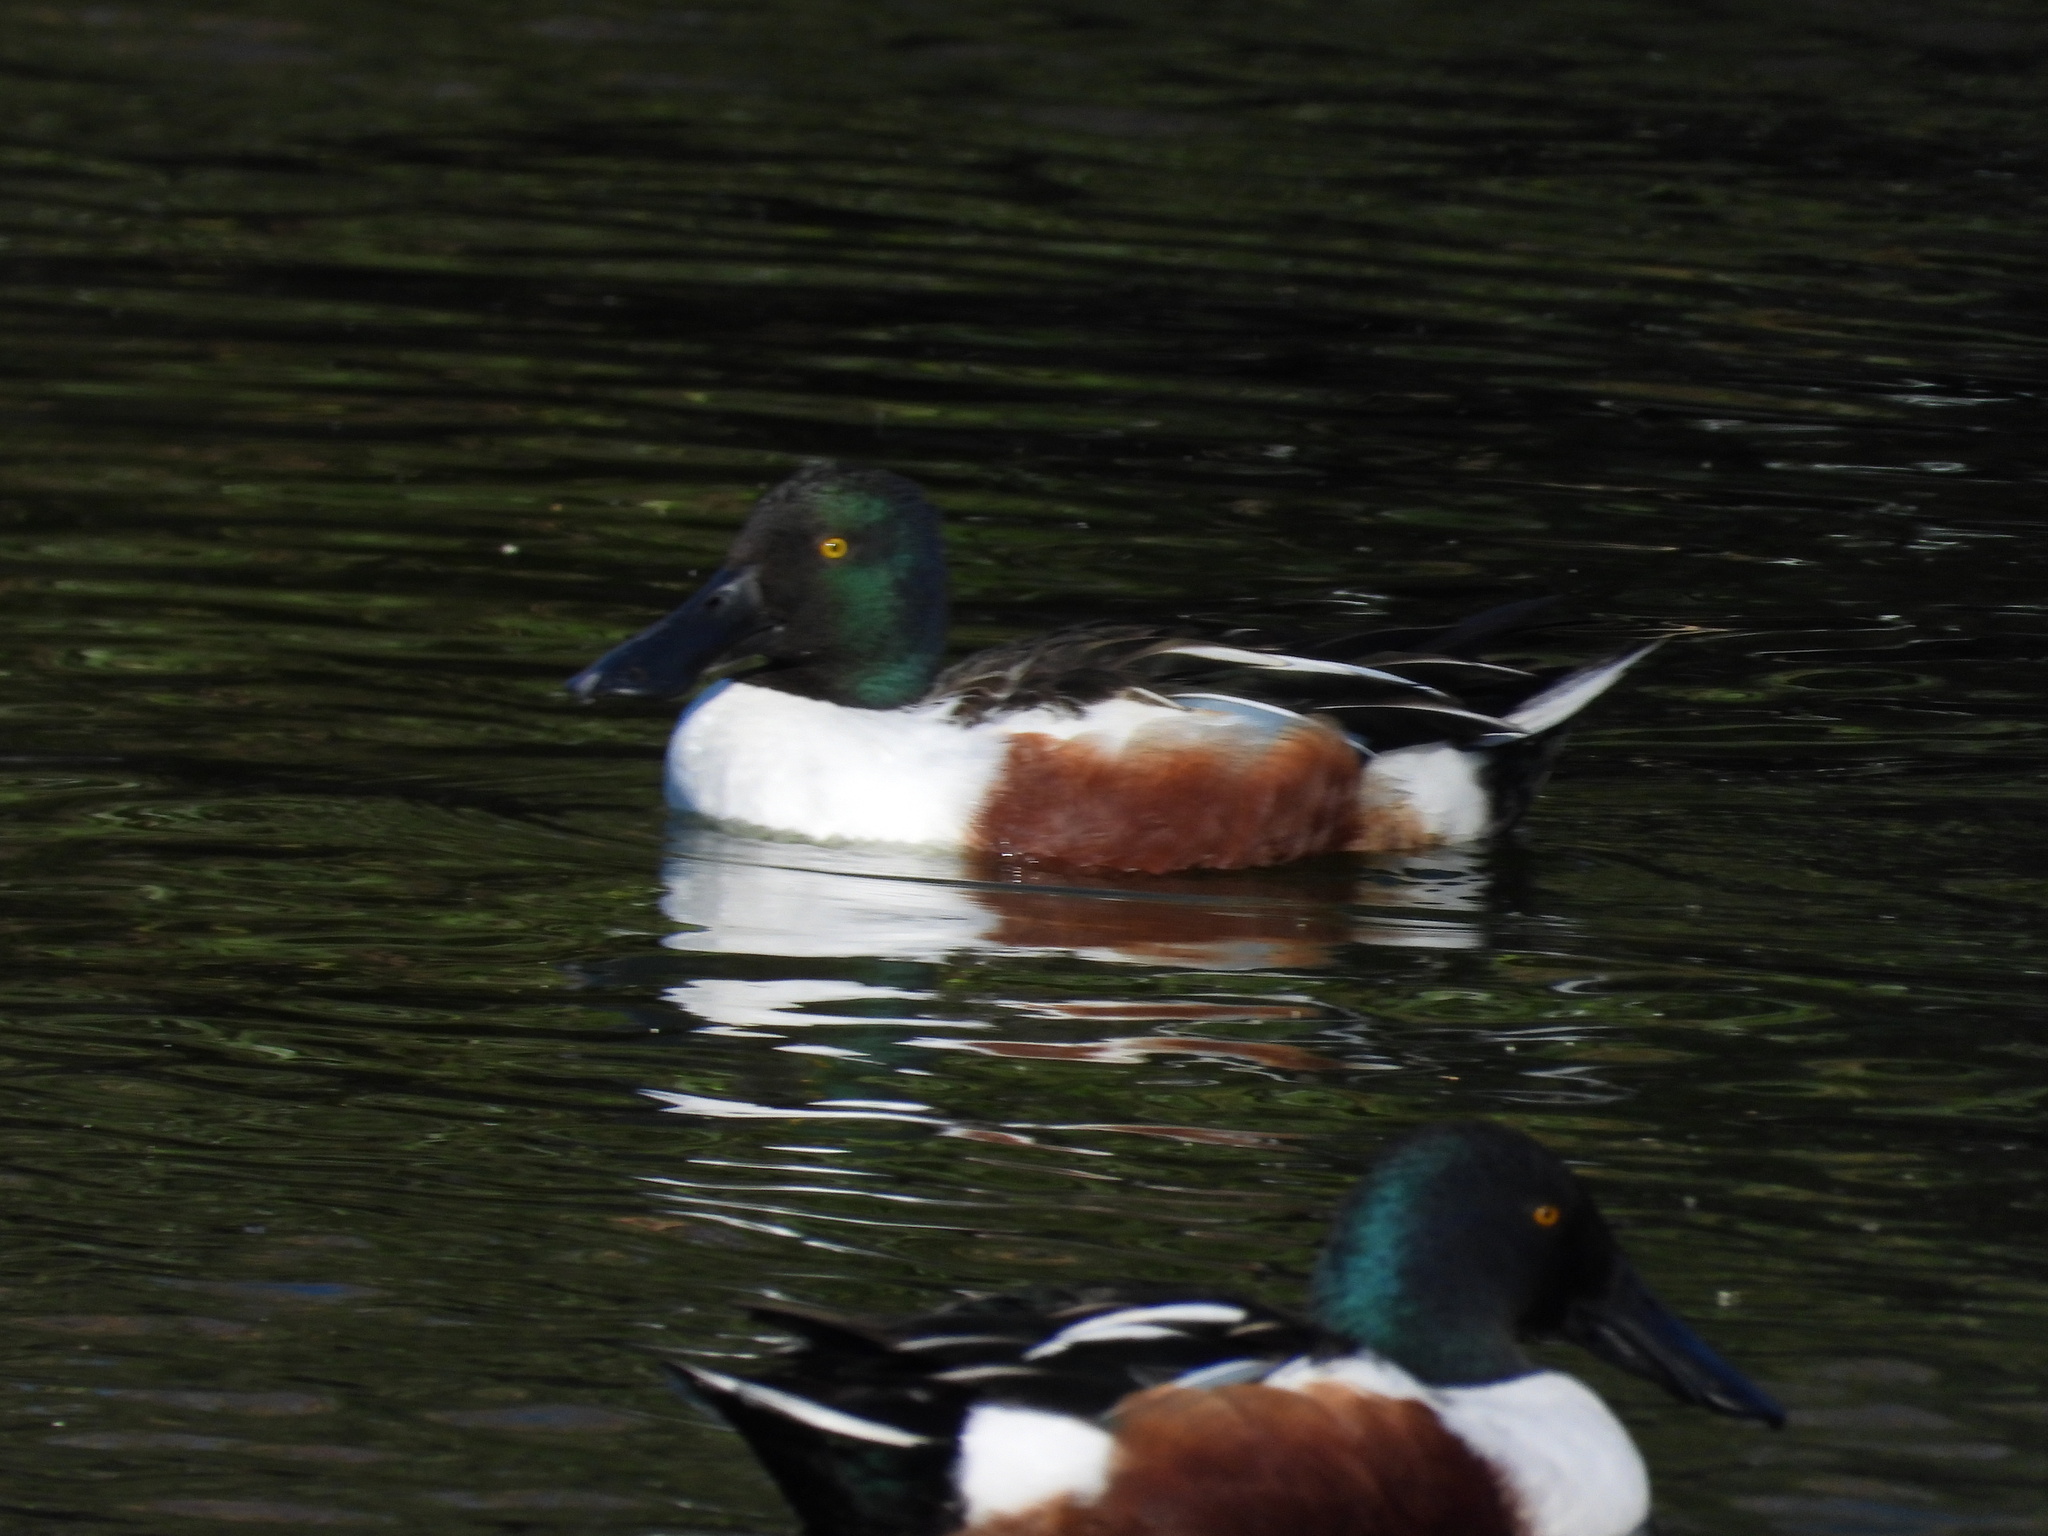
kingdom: Animalia
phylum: Chordata
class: Aves
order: Anseriformes
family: Anatidae
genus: Spatula
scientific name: Spatula clypeata
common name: Northern shoveler
